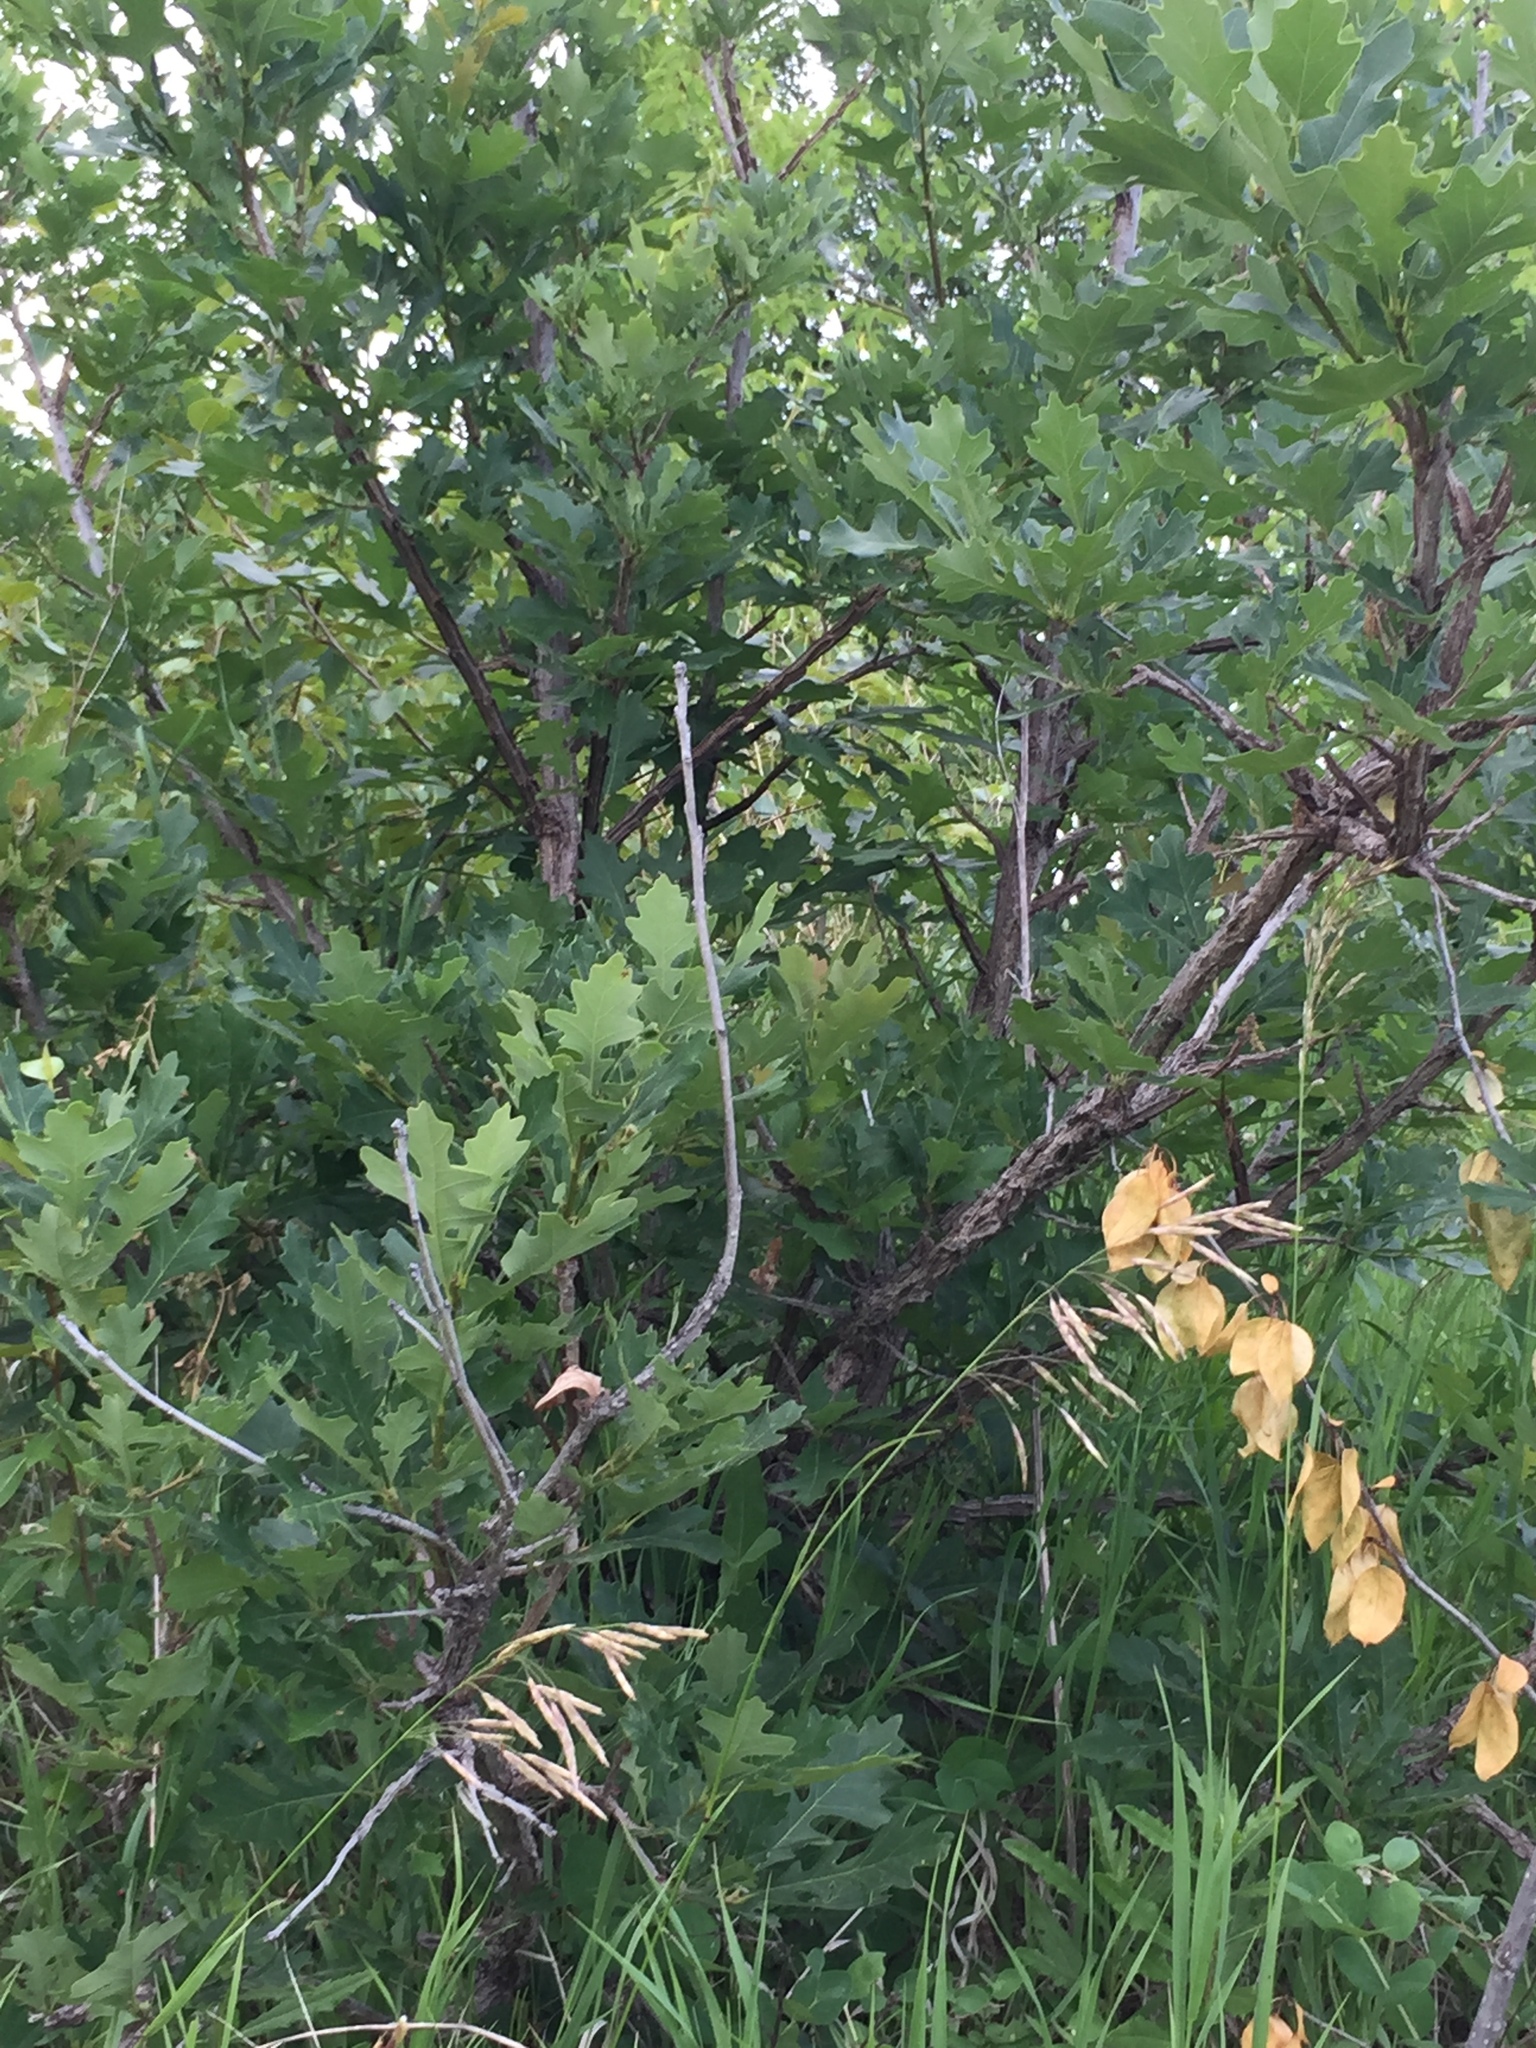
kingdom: Plantae
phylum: Tracheophyta
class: Magnoliopsida
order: Fagales
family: Fagaceae
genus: Quercus
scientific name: Quercus macrocarpa
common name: Bur oak
